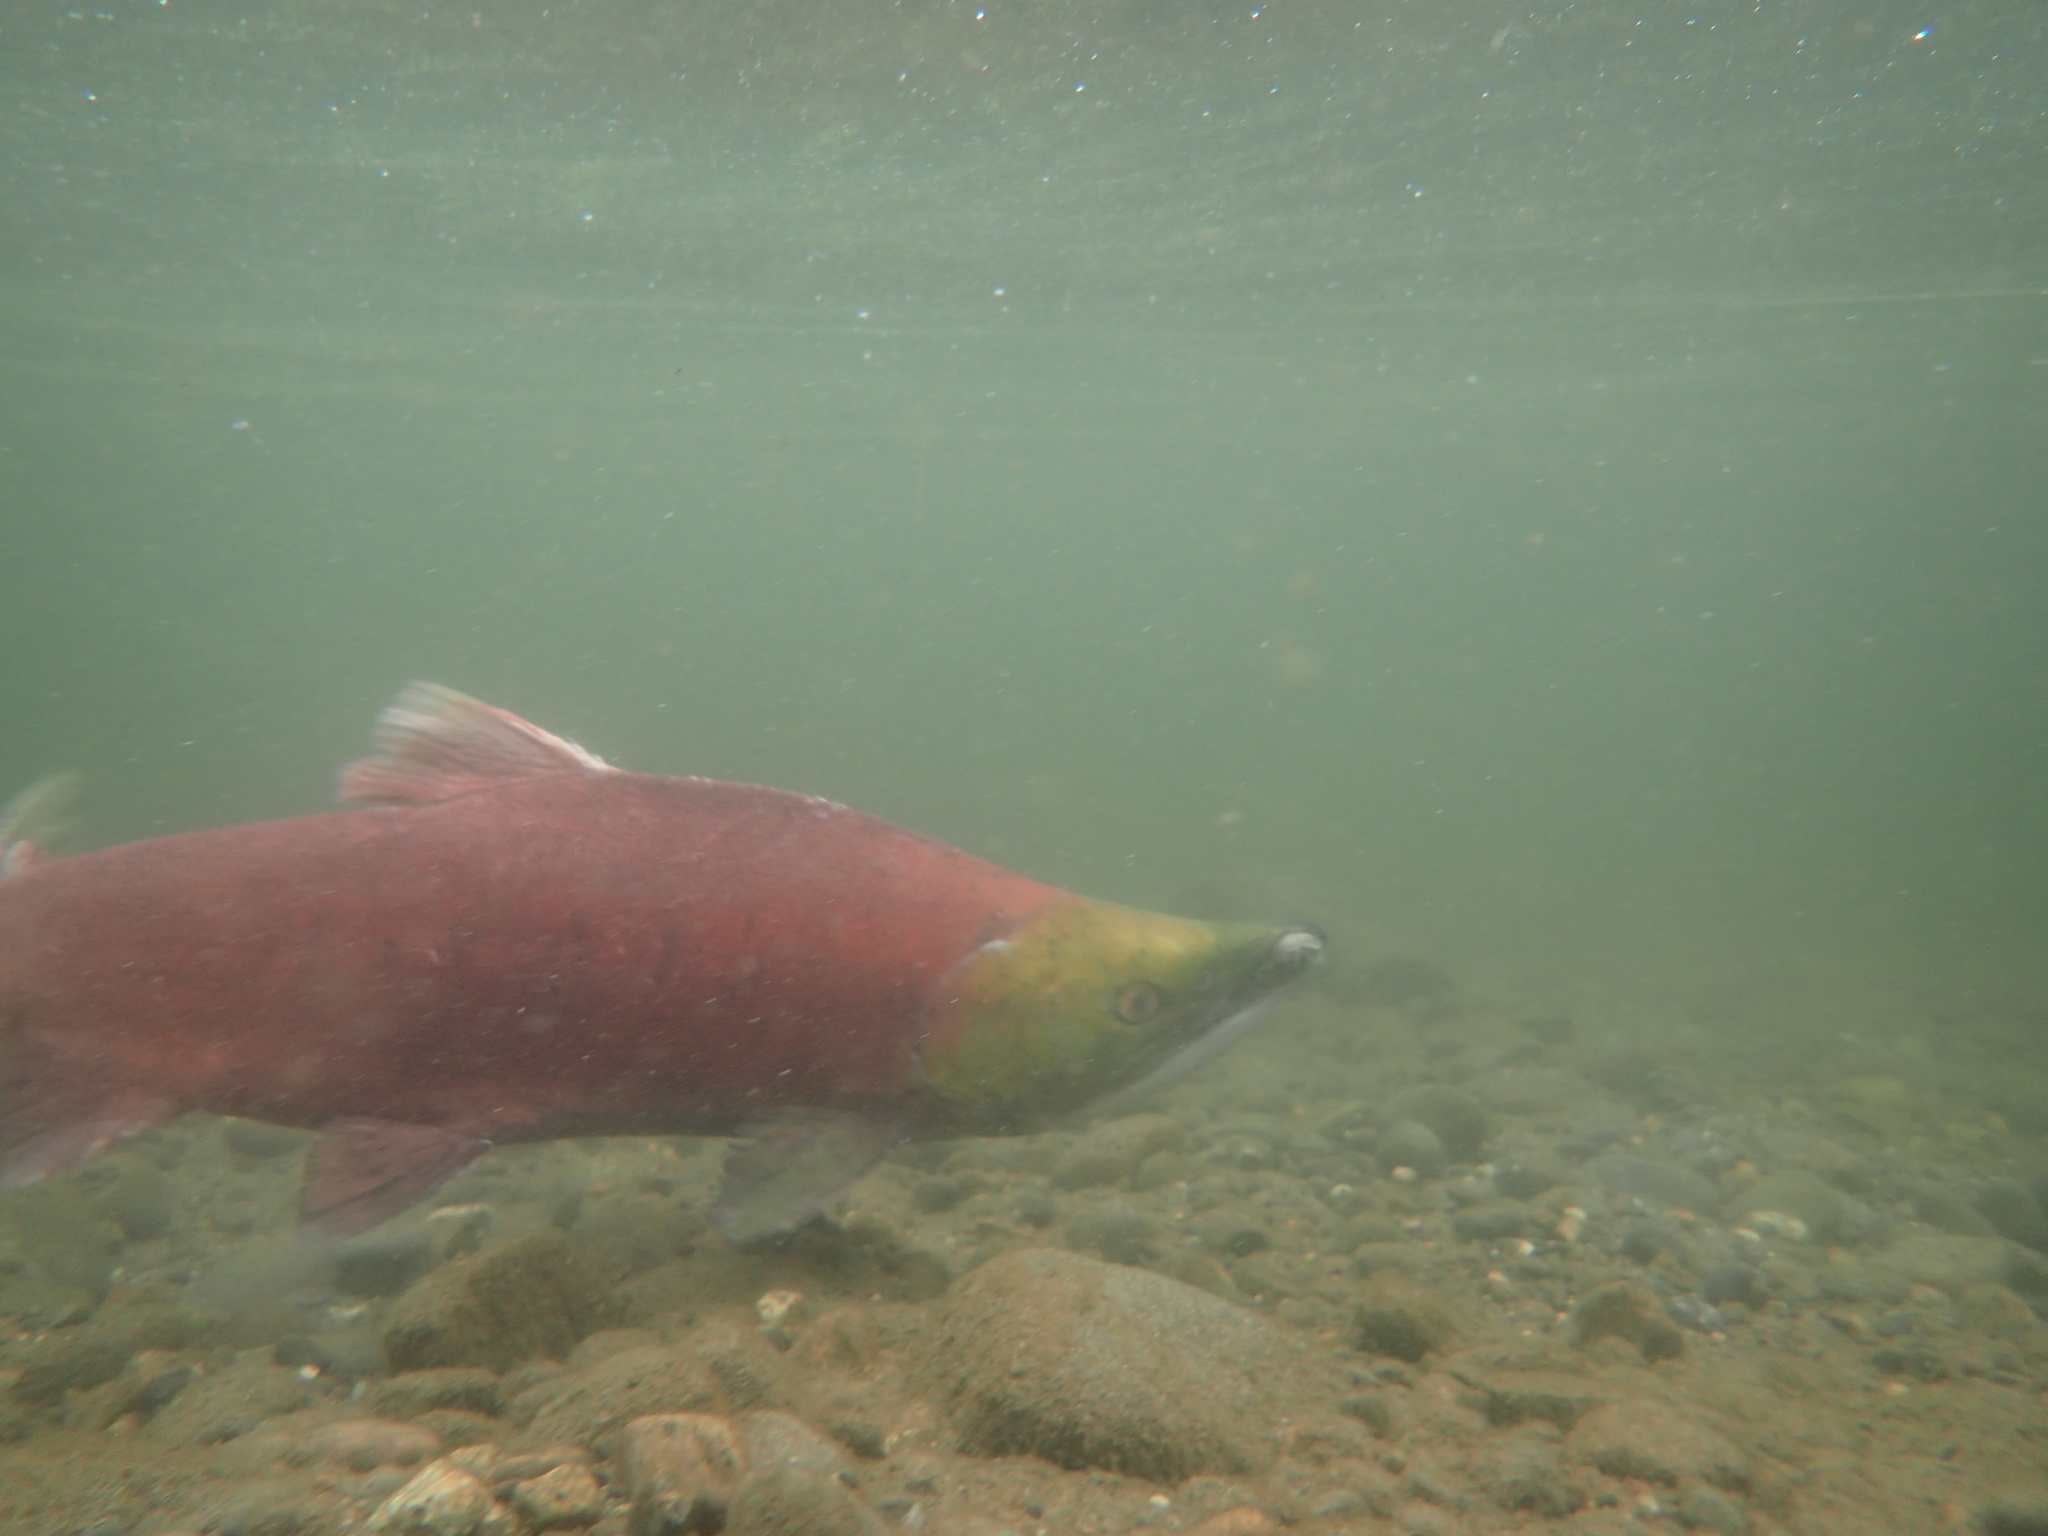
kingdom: Animalia
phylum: Chordata
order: Salmoniformes
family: Salmonidae
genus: Oncorhynchus
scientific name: Oncorhynchus nerka
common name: Sockeye salmon
